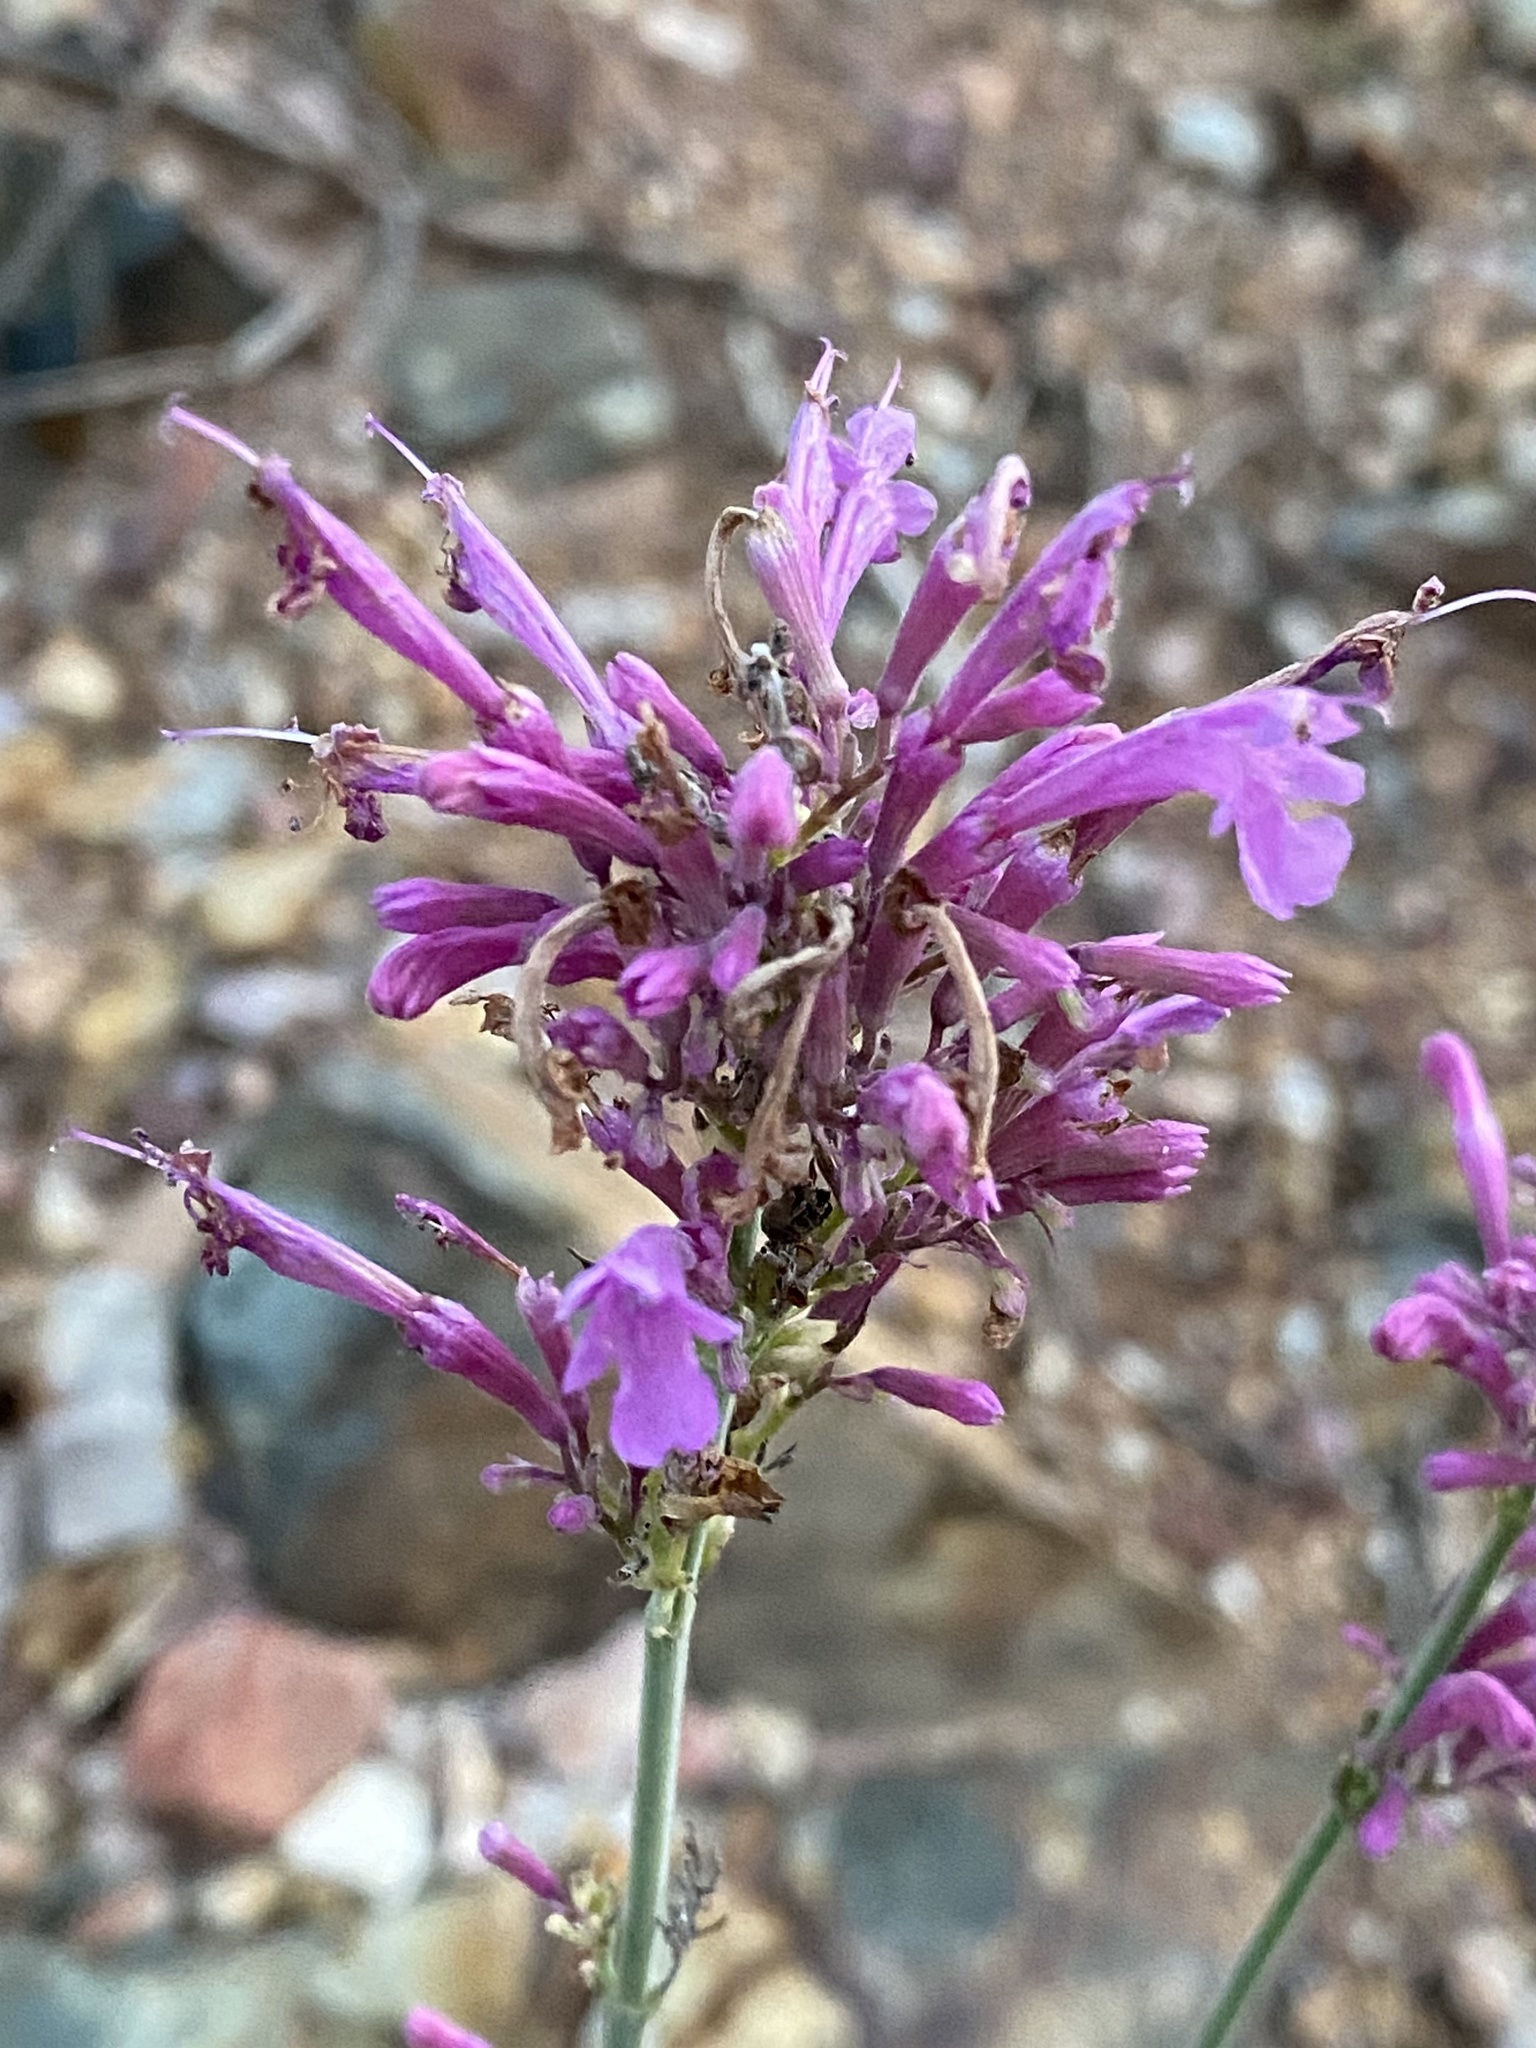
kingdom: Plantae
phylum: Tracheophyta
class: Magnoliopsida
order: Lamiales
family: Lamiaceae
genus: Agastache
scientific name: Agastache pallida
